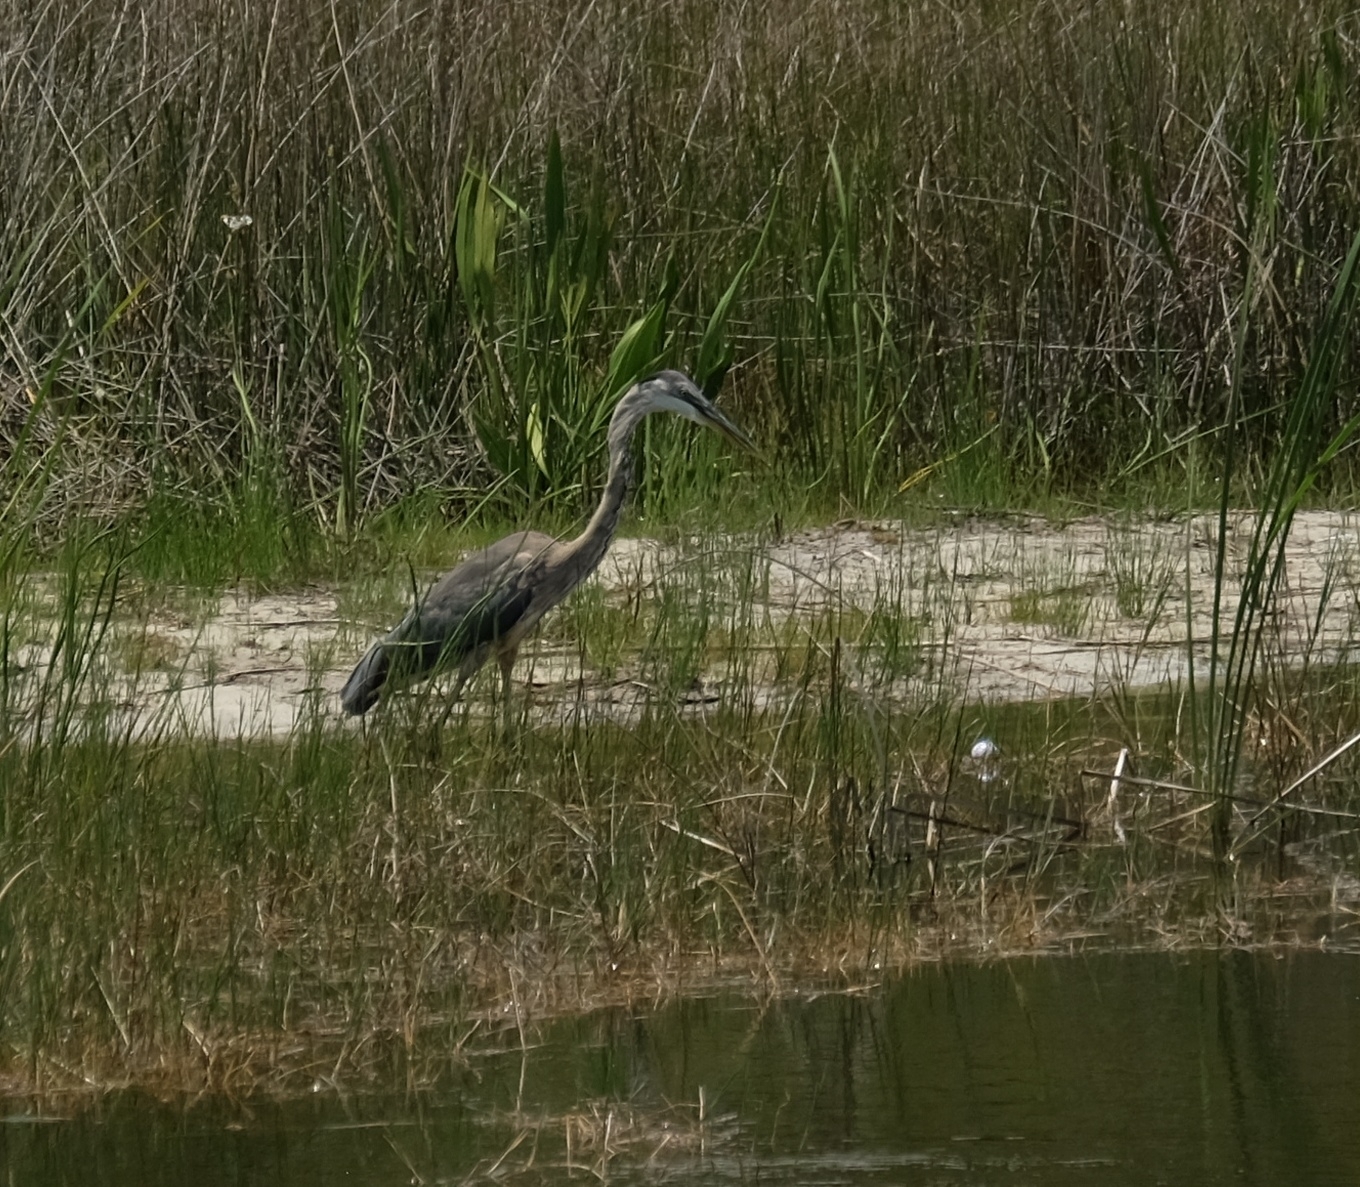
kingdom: Animalia
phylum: Chordata
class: Aves
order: Pelecaniformes
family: Ardeidae
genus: Ardea
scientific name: Ardea herodias
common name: Great blue heron
